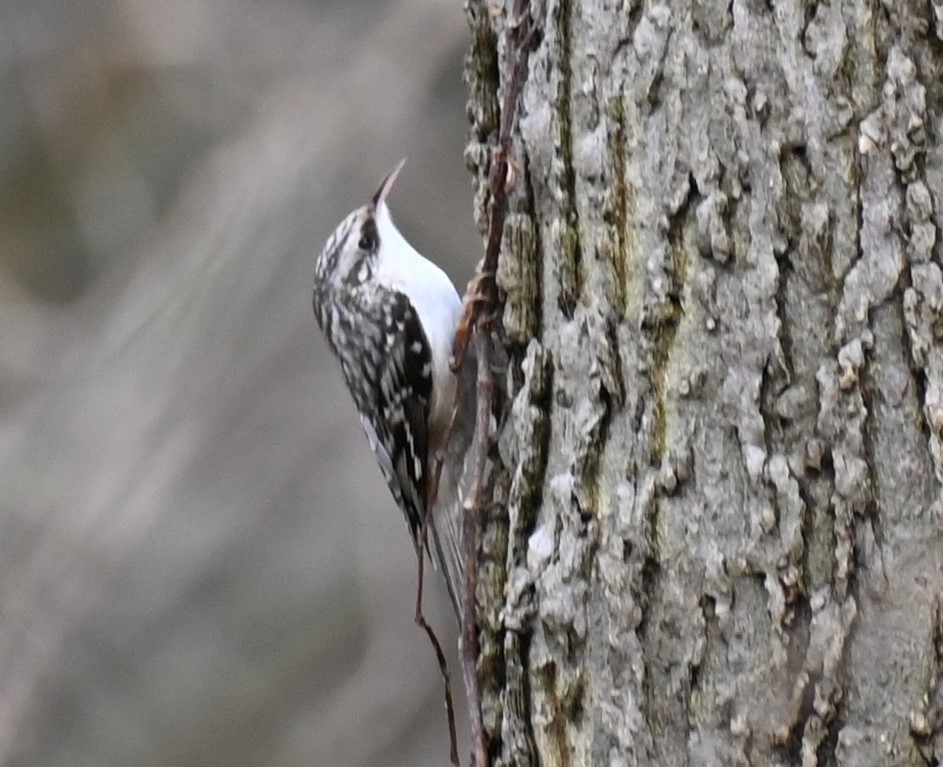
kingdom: Animalia
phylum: Chordata
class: Aves
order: Passeriformes
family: Certhiidae
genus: Certhia
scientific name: Certhia americana
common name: Brown creeper
